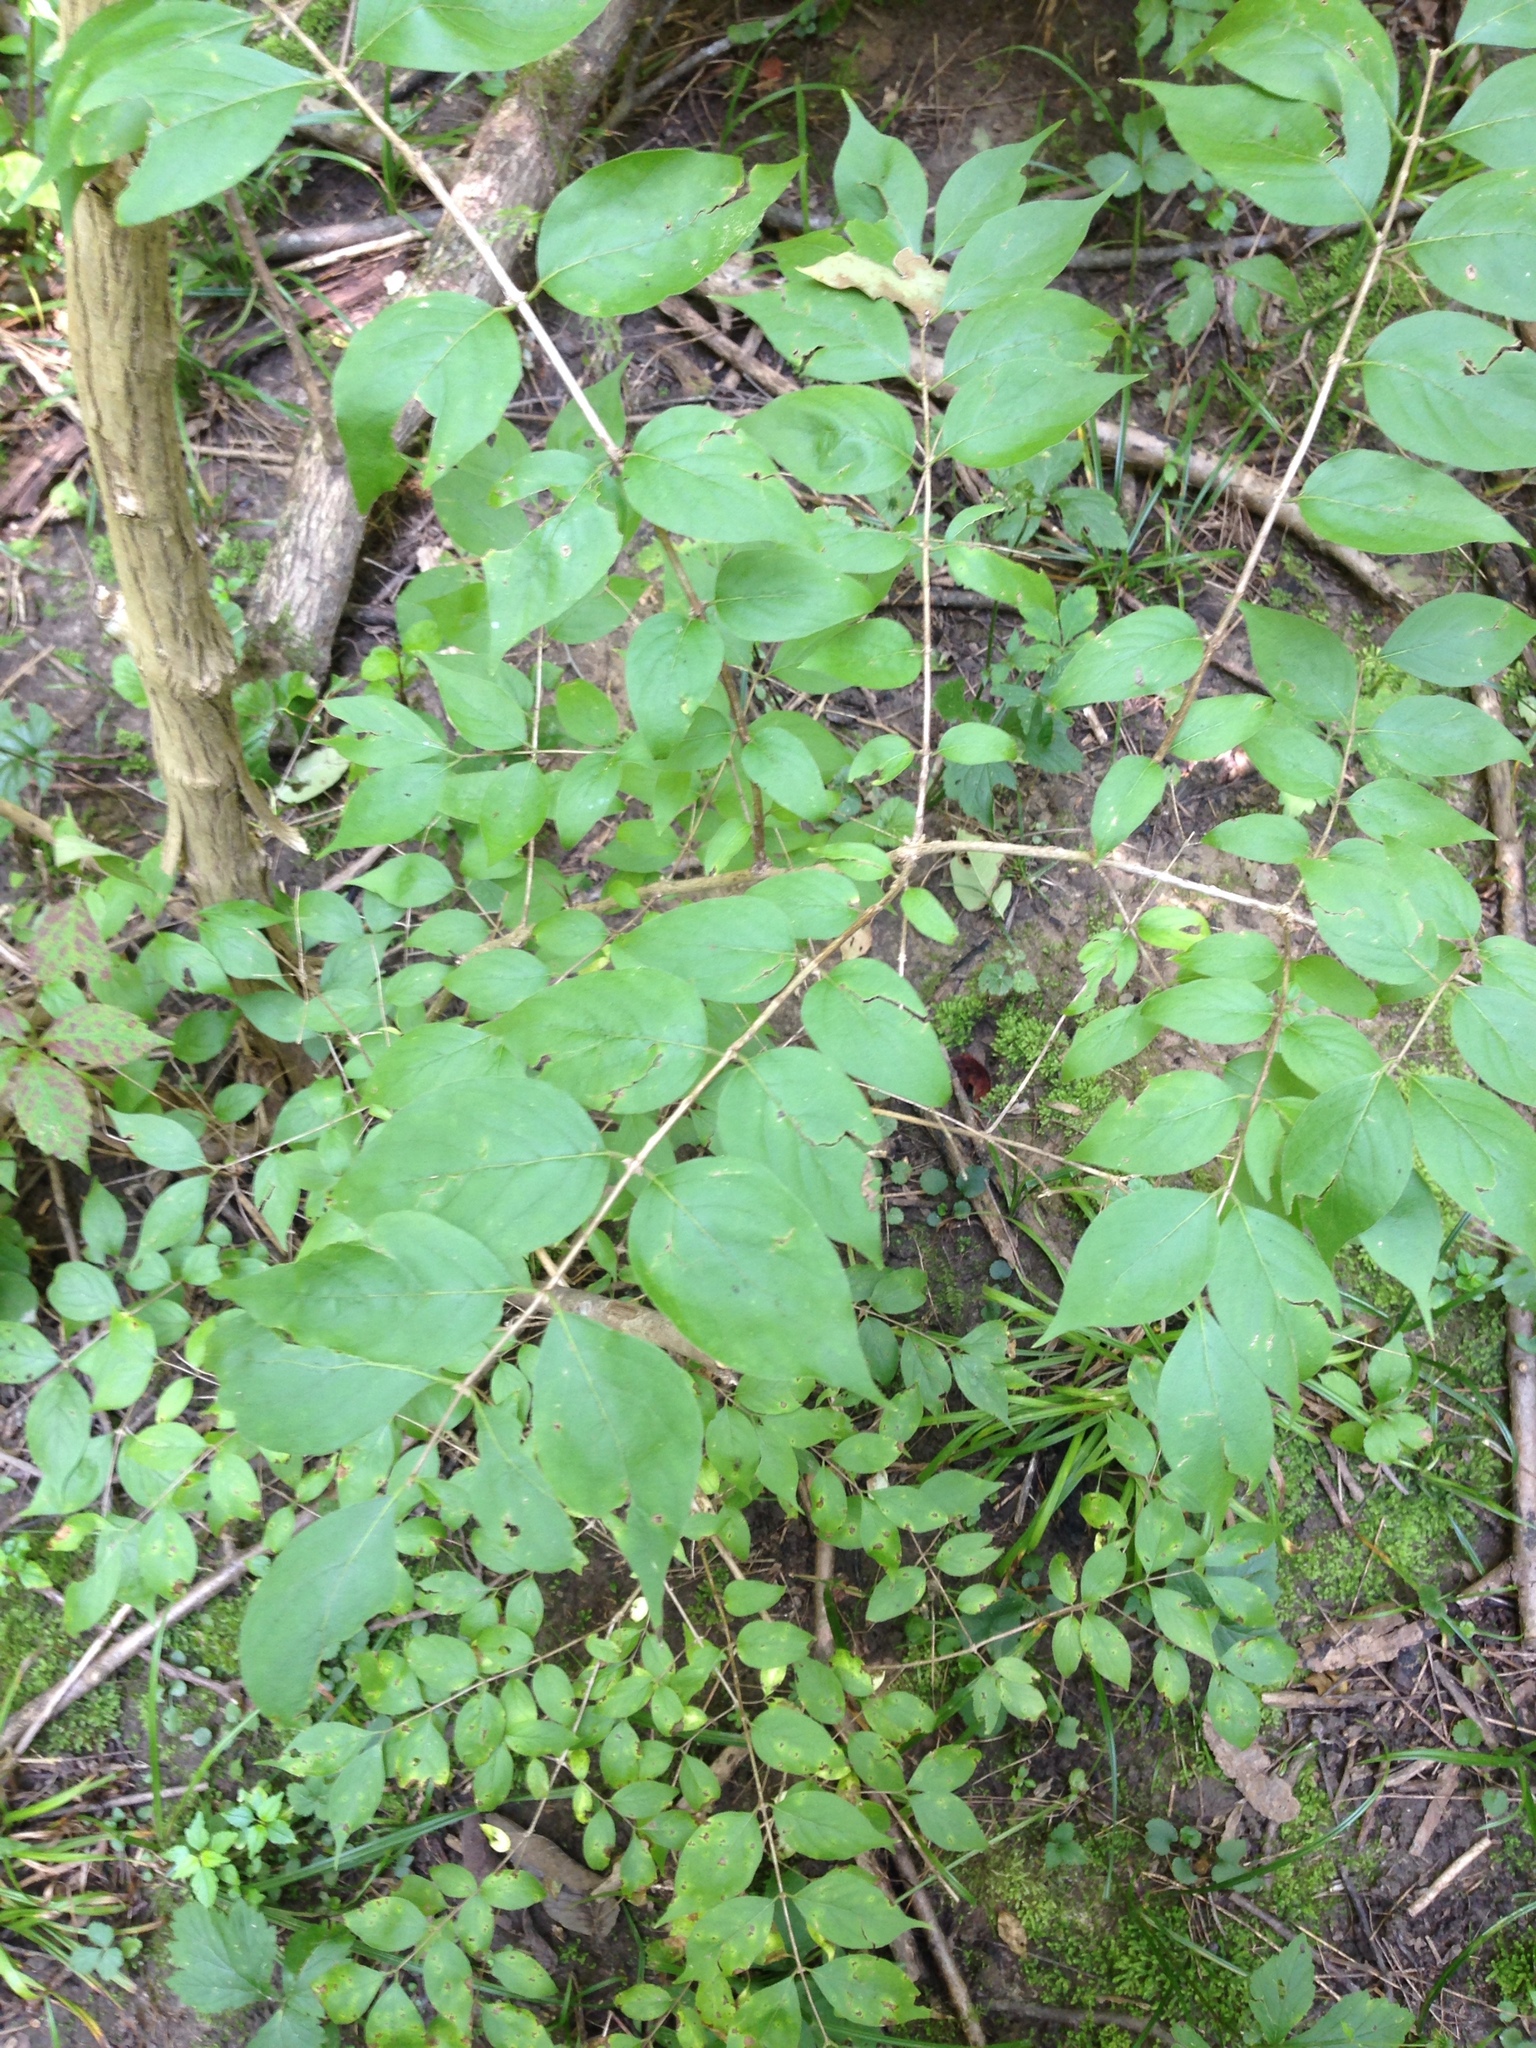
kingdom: Plantae
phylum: Tracheophyta
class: Magnoliopsida
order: Dipsacales
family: Caprifoliaceae
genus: Lonicera
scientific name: Lonicera maackii
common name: Amur honeysuckle
